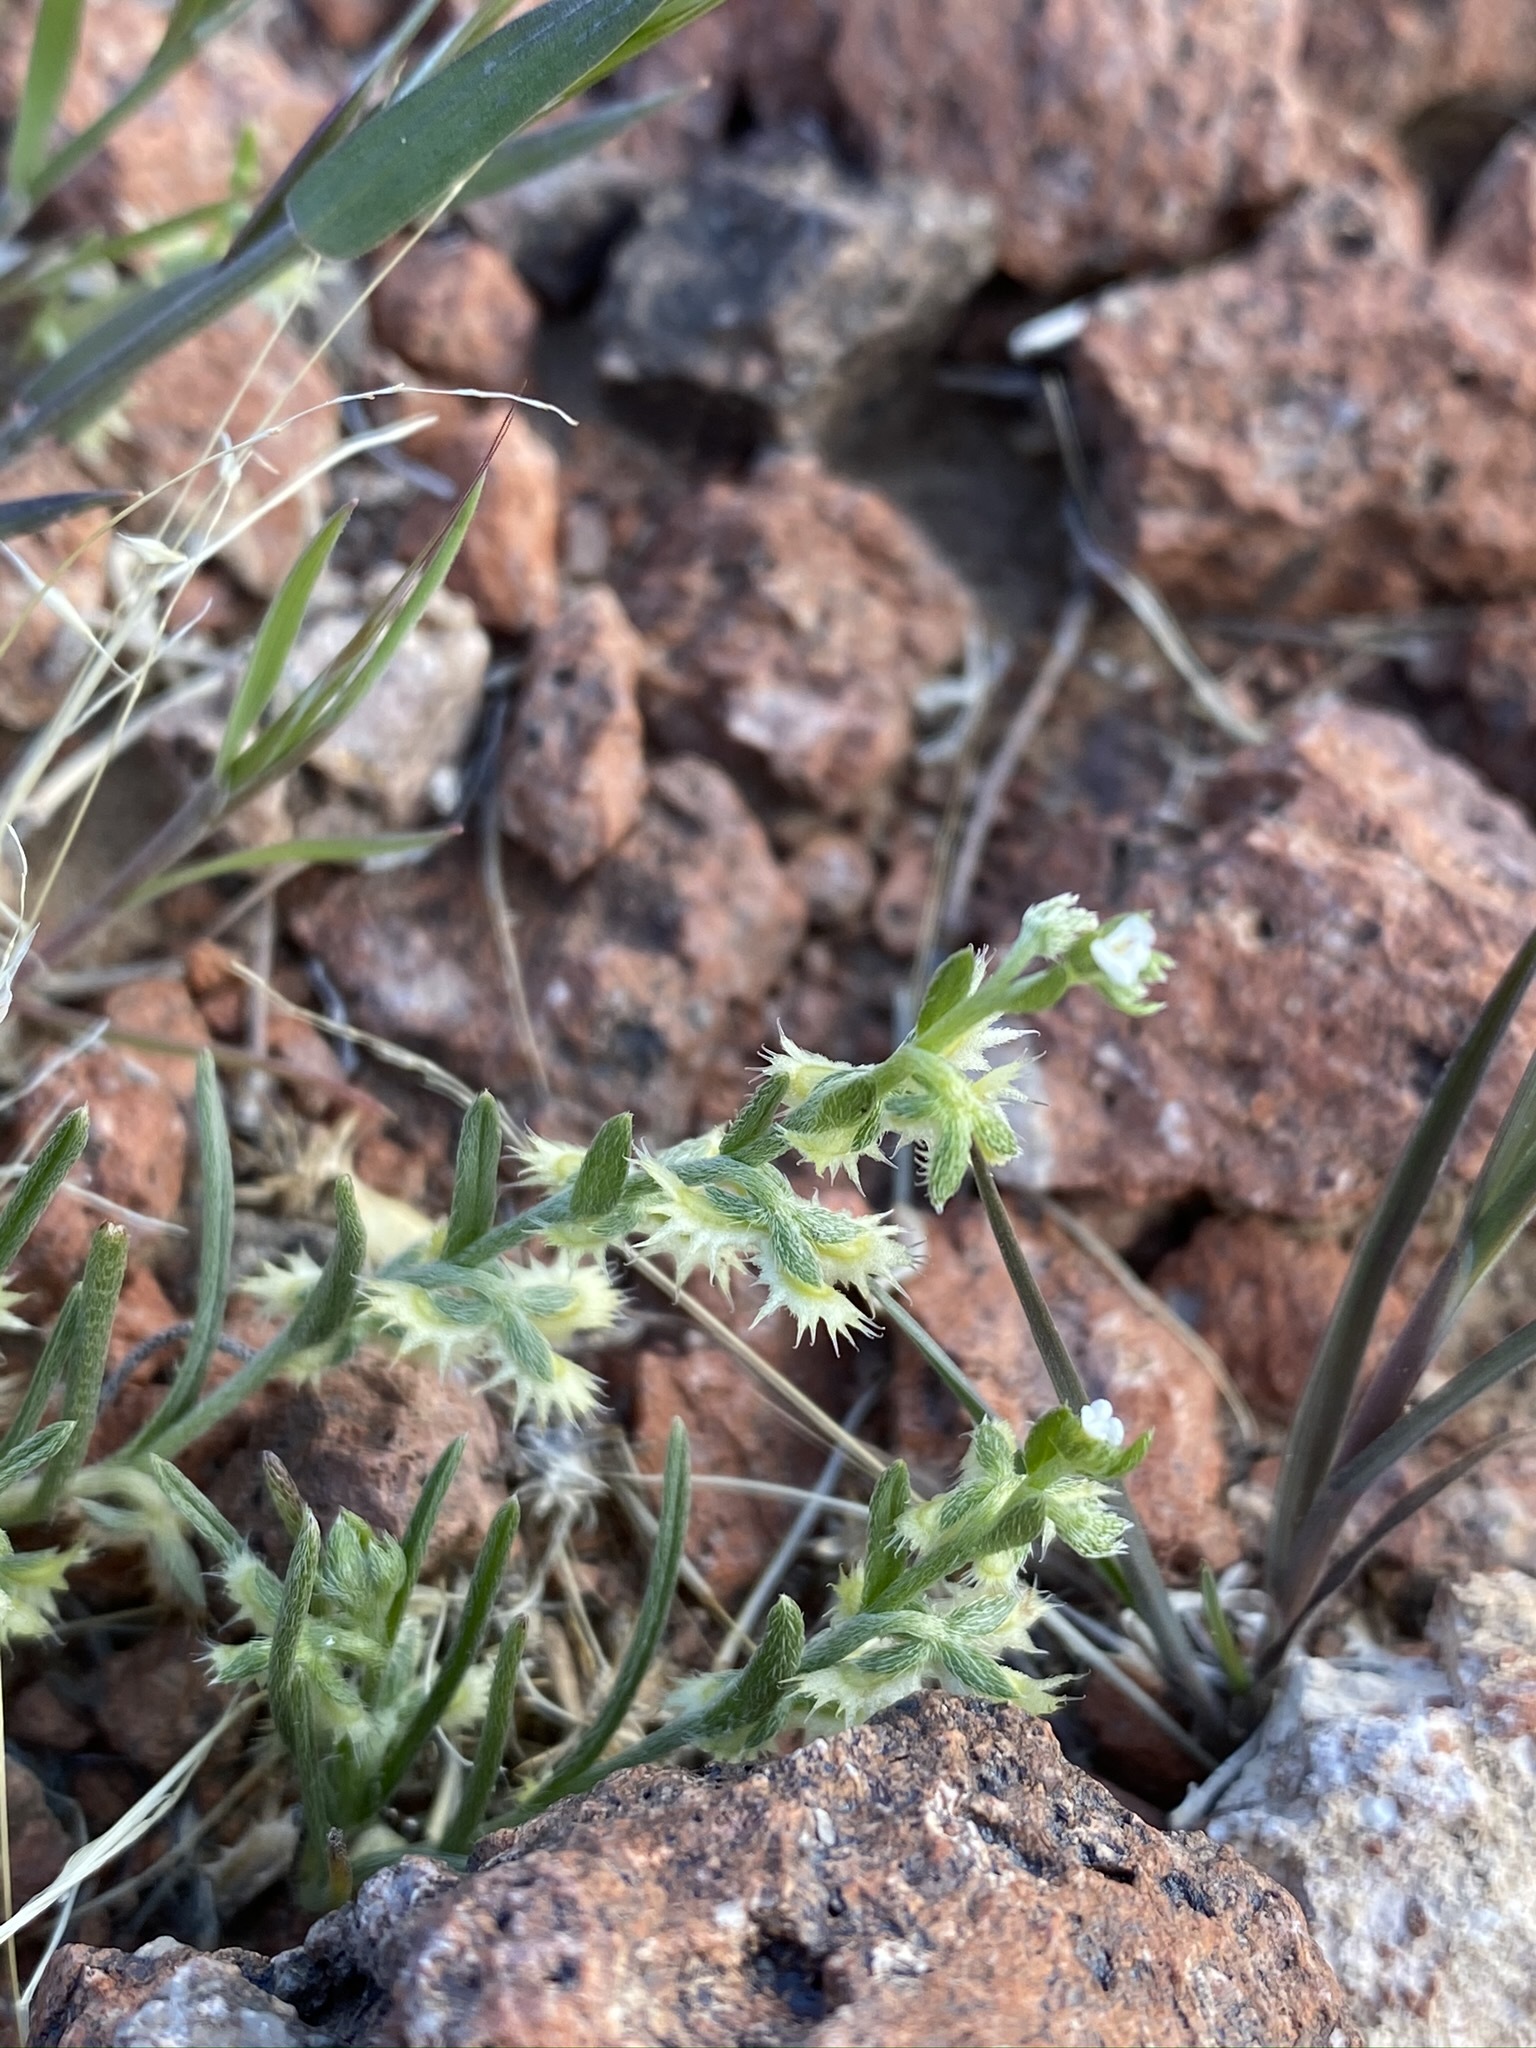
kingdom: Plantae
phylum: Tracheophyta
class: Magnoliopsida
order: Boraginales
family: Boraginaceae
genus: Pectocarya
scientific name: Pectocarya platycarpa
